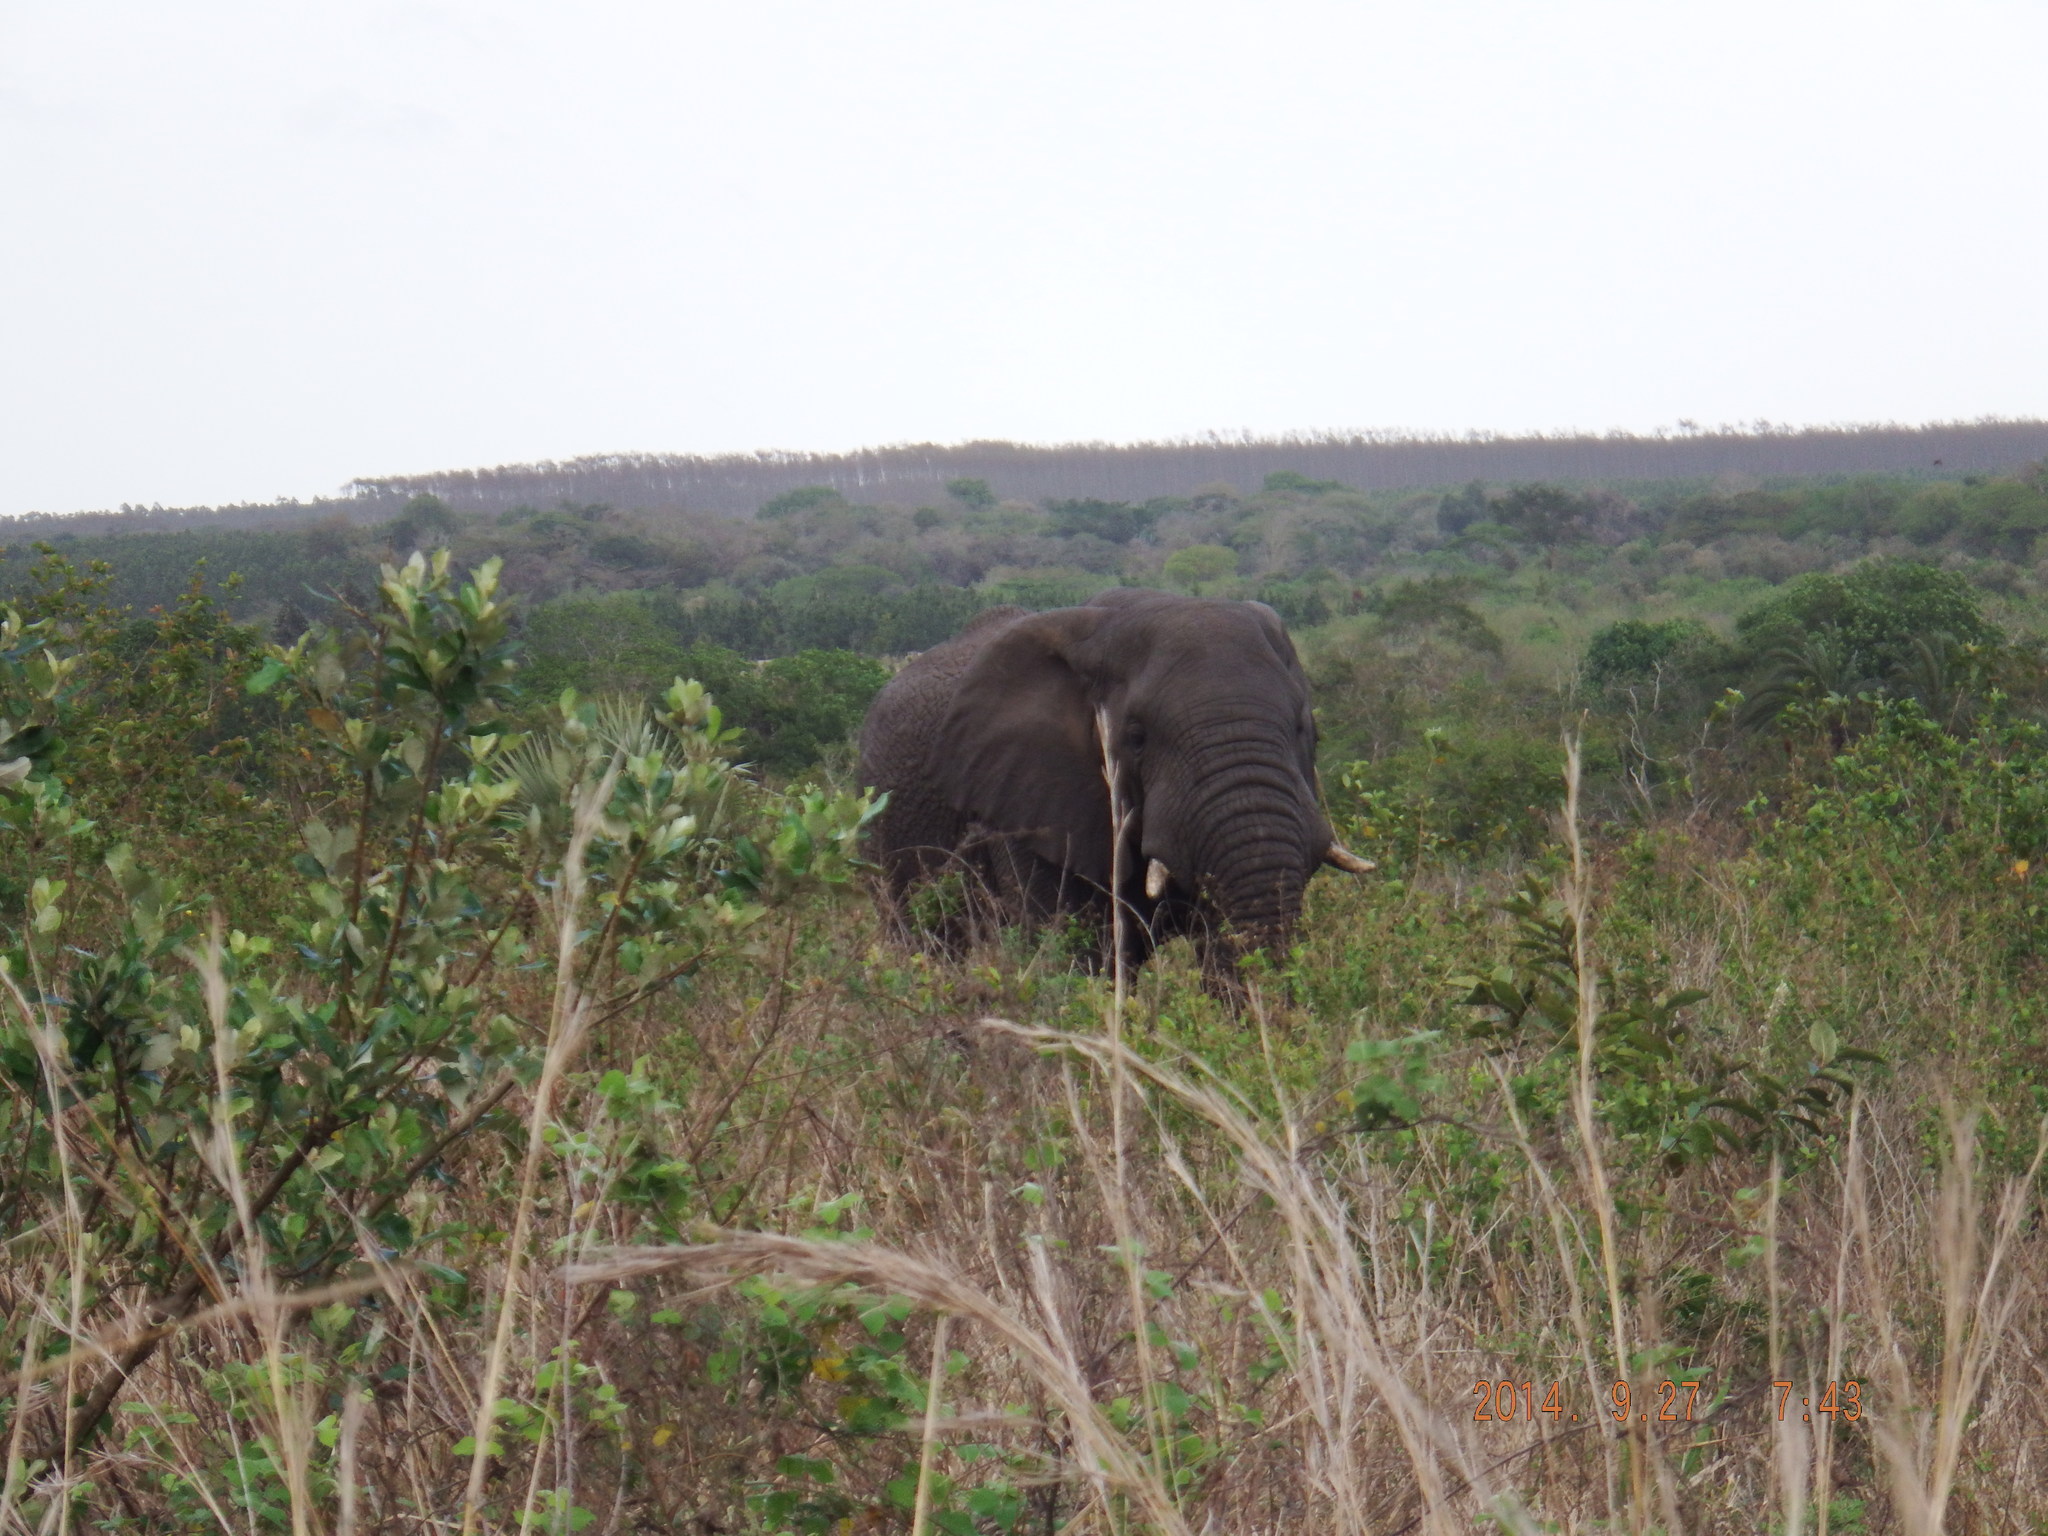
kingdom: Animalia
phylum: Chordata
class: Mammalia
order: Proboscidea
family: Elephantidae
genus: Loxodonta
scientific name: Loxodonta africana
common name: African elephant
